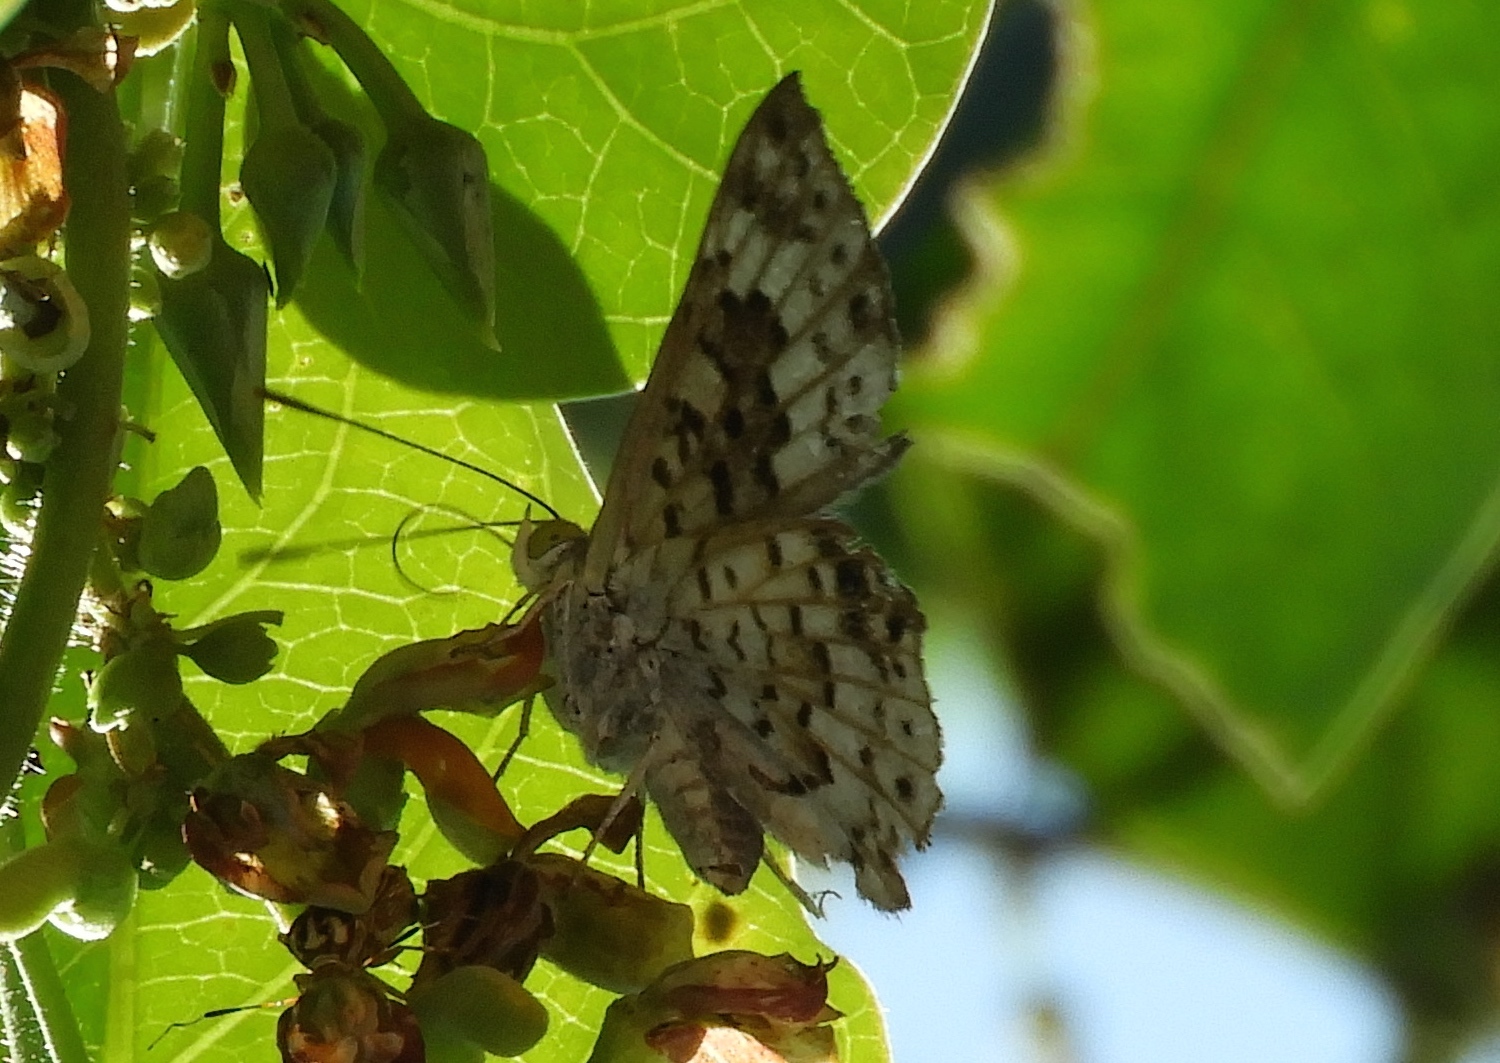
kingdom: Animalia
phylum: Arthropoda
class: Insecta
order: Lepidoptera
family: Riodinidae
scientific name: Riodinidae
